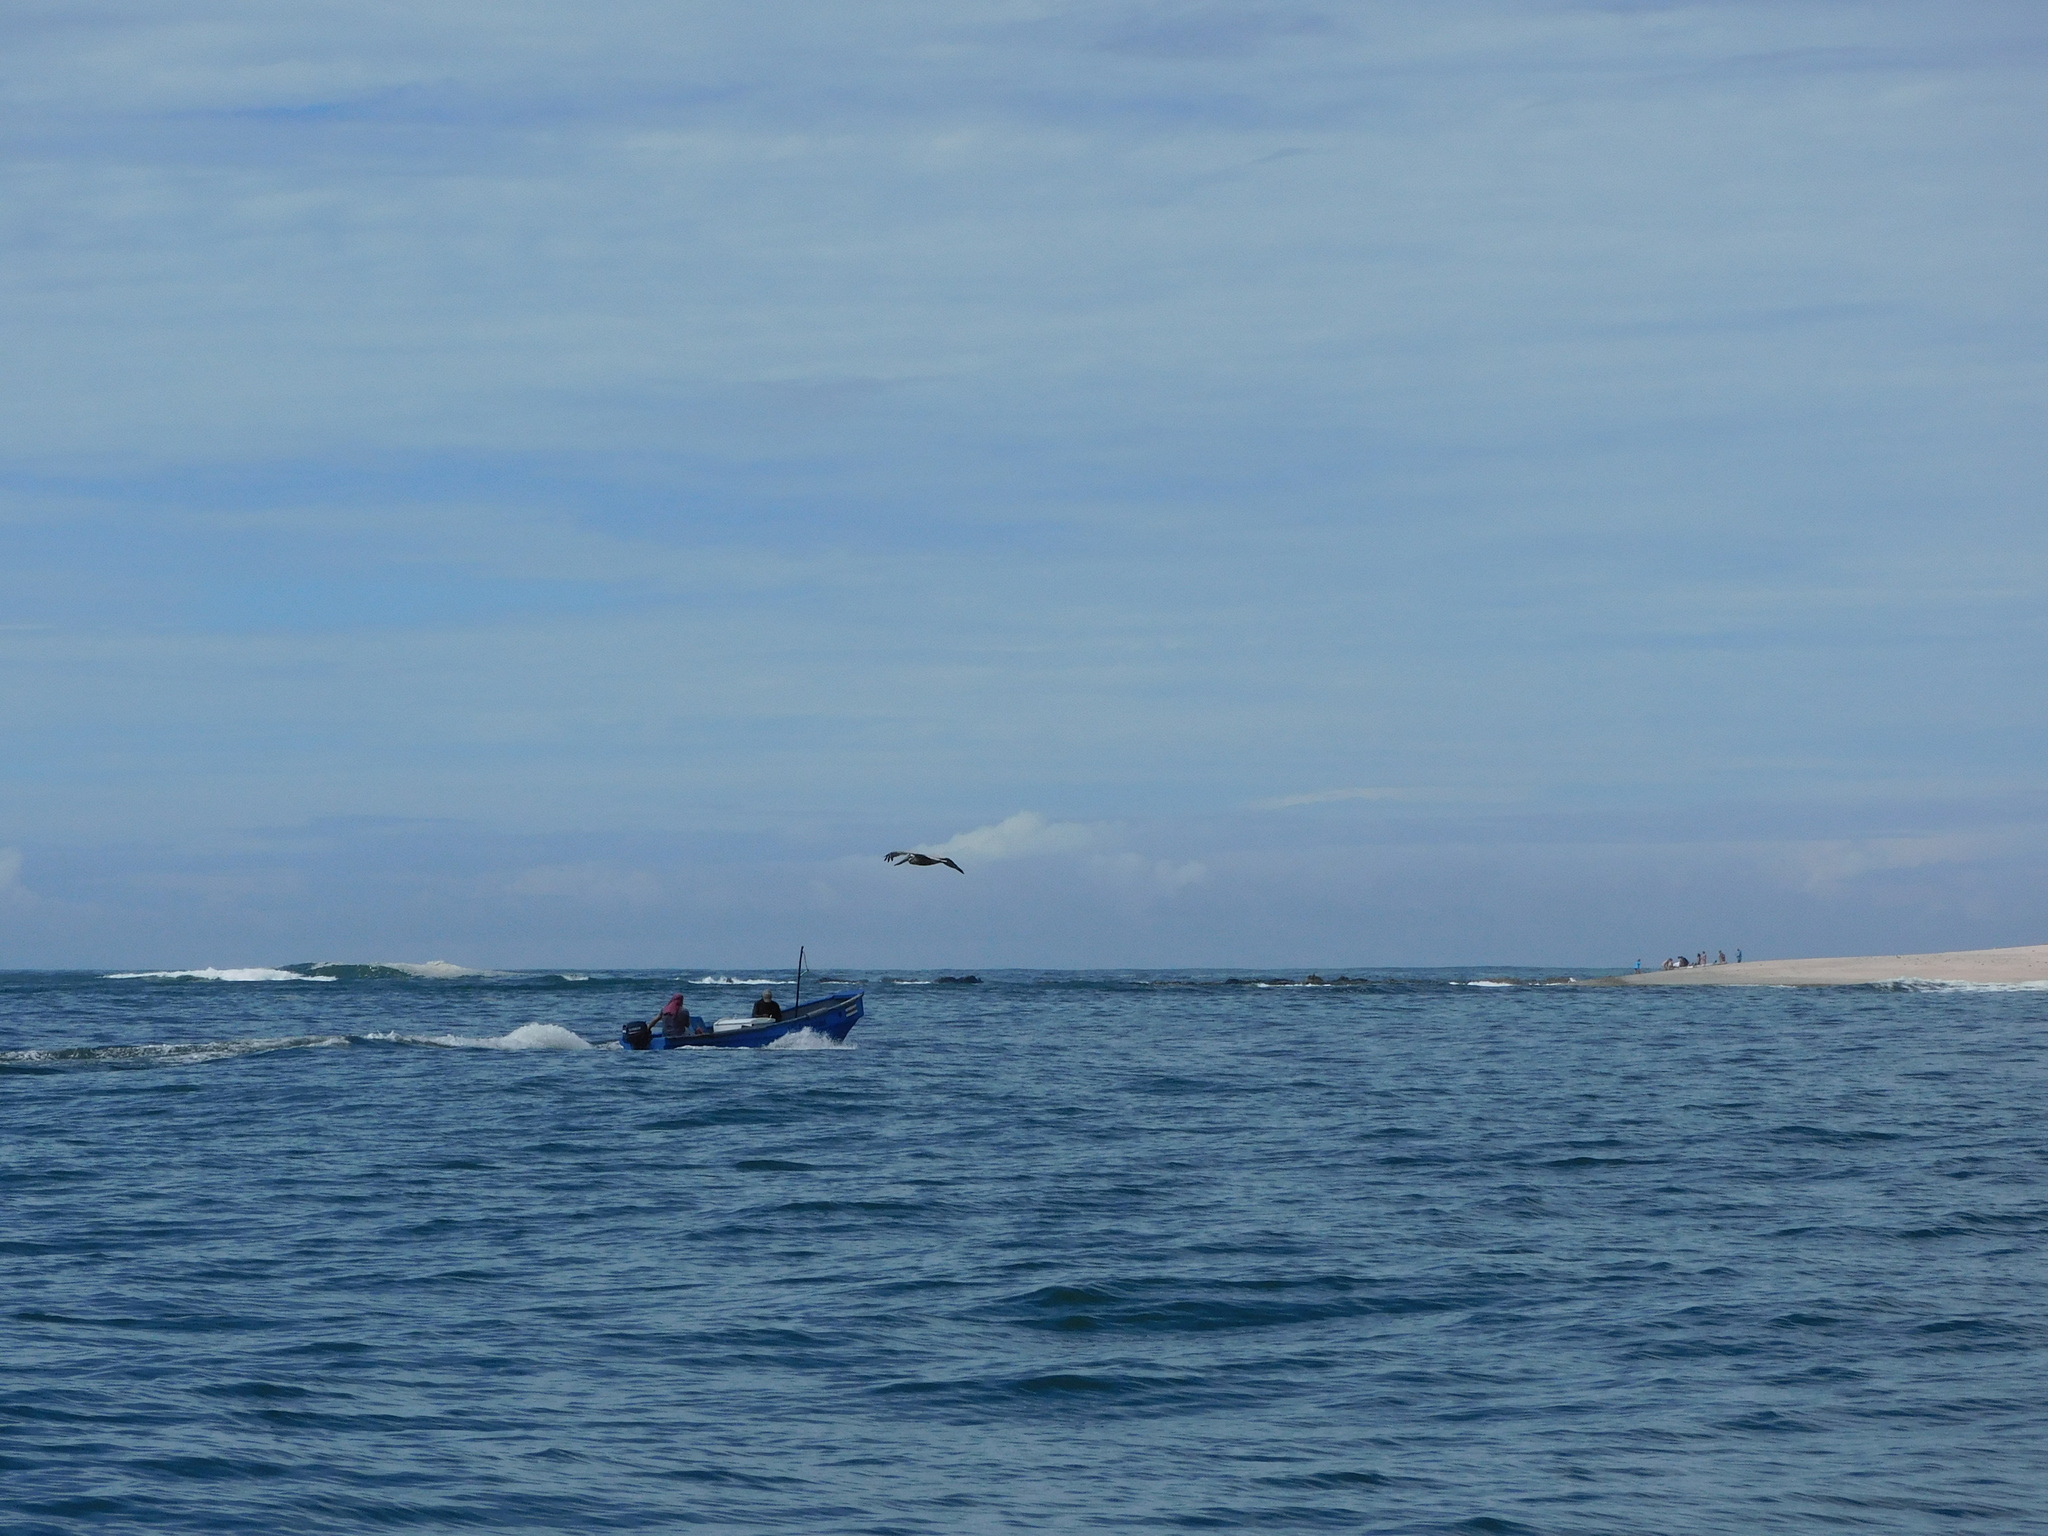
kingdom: Animalia
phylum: Chordata
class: Aves
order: Pelecaniformes
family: Pelecanidae
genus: Pelecanus
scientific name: Pelecanus occidentalis
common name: Brown pelican
